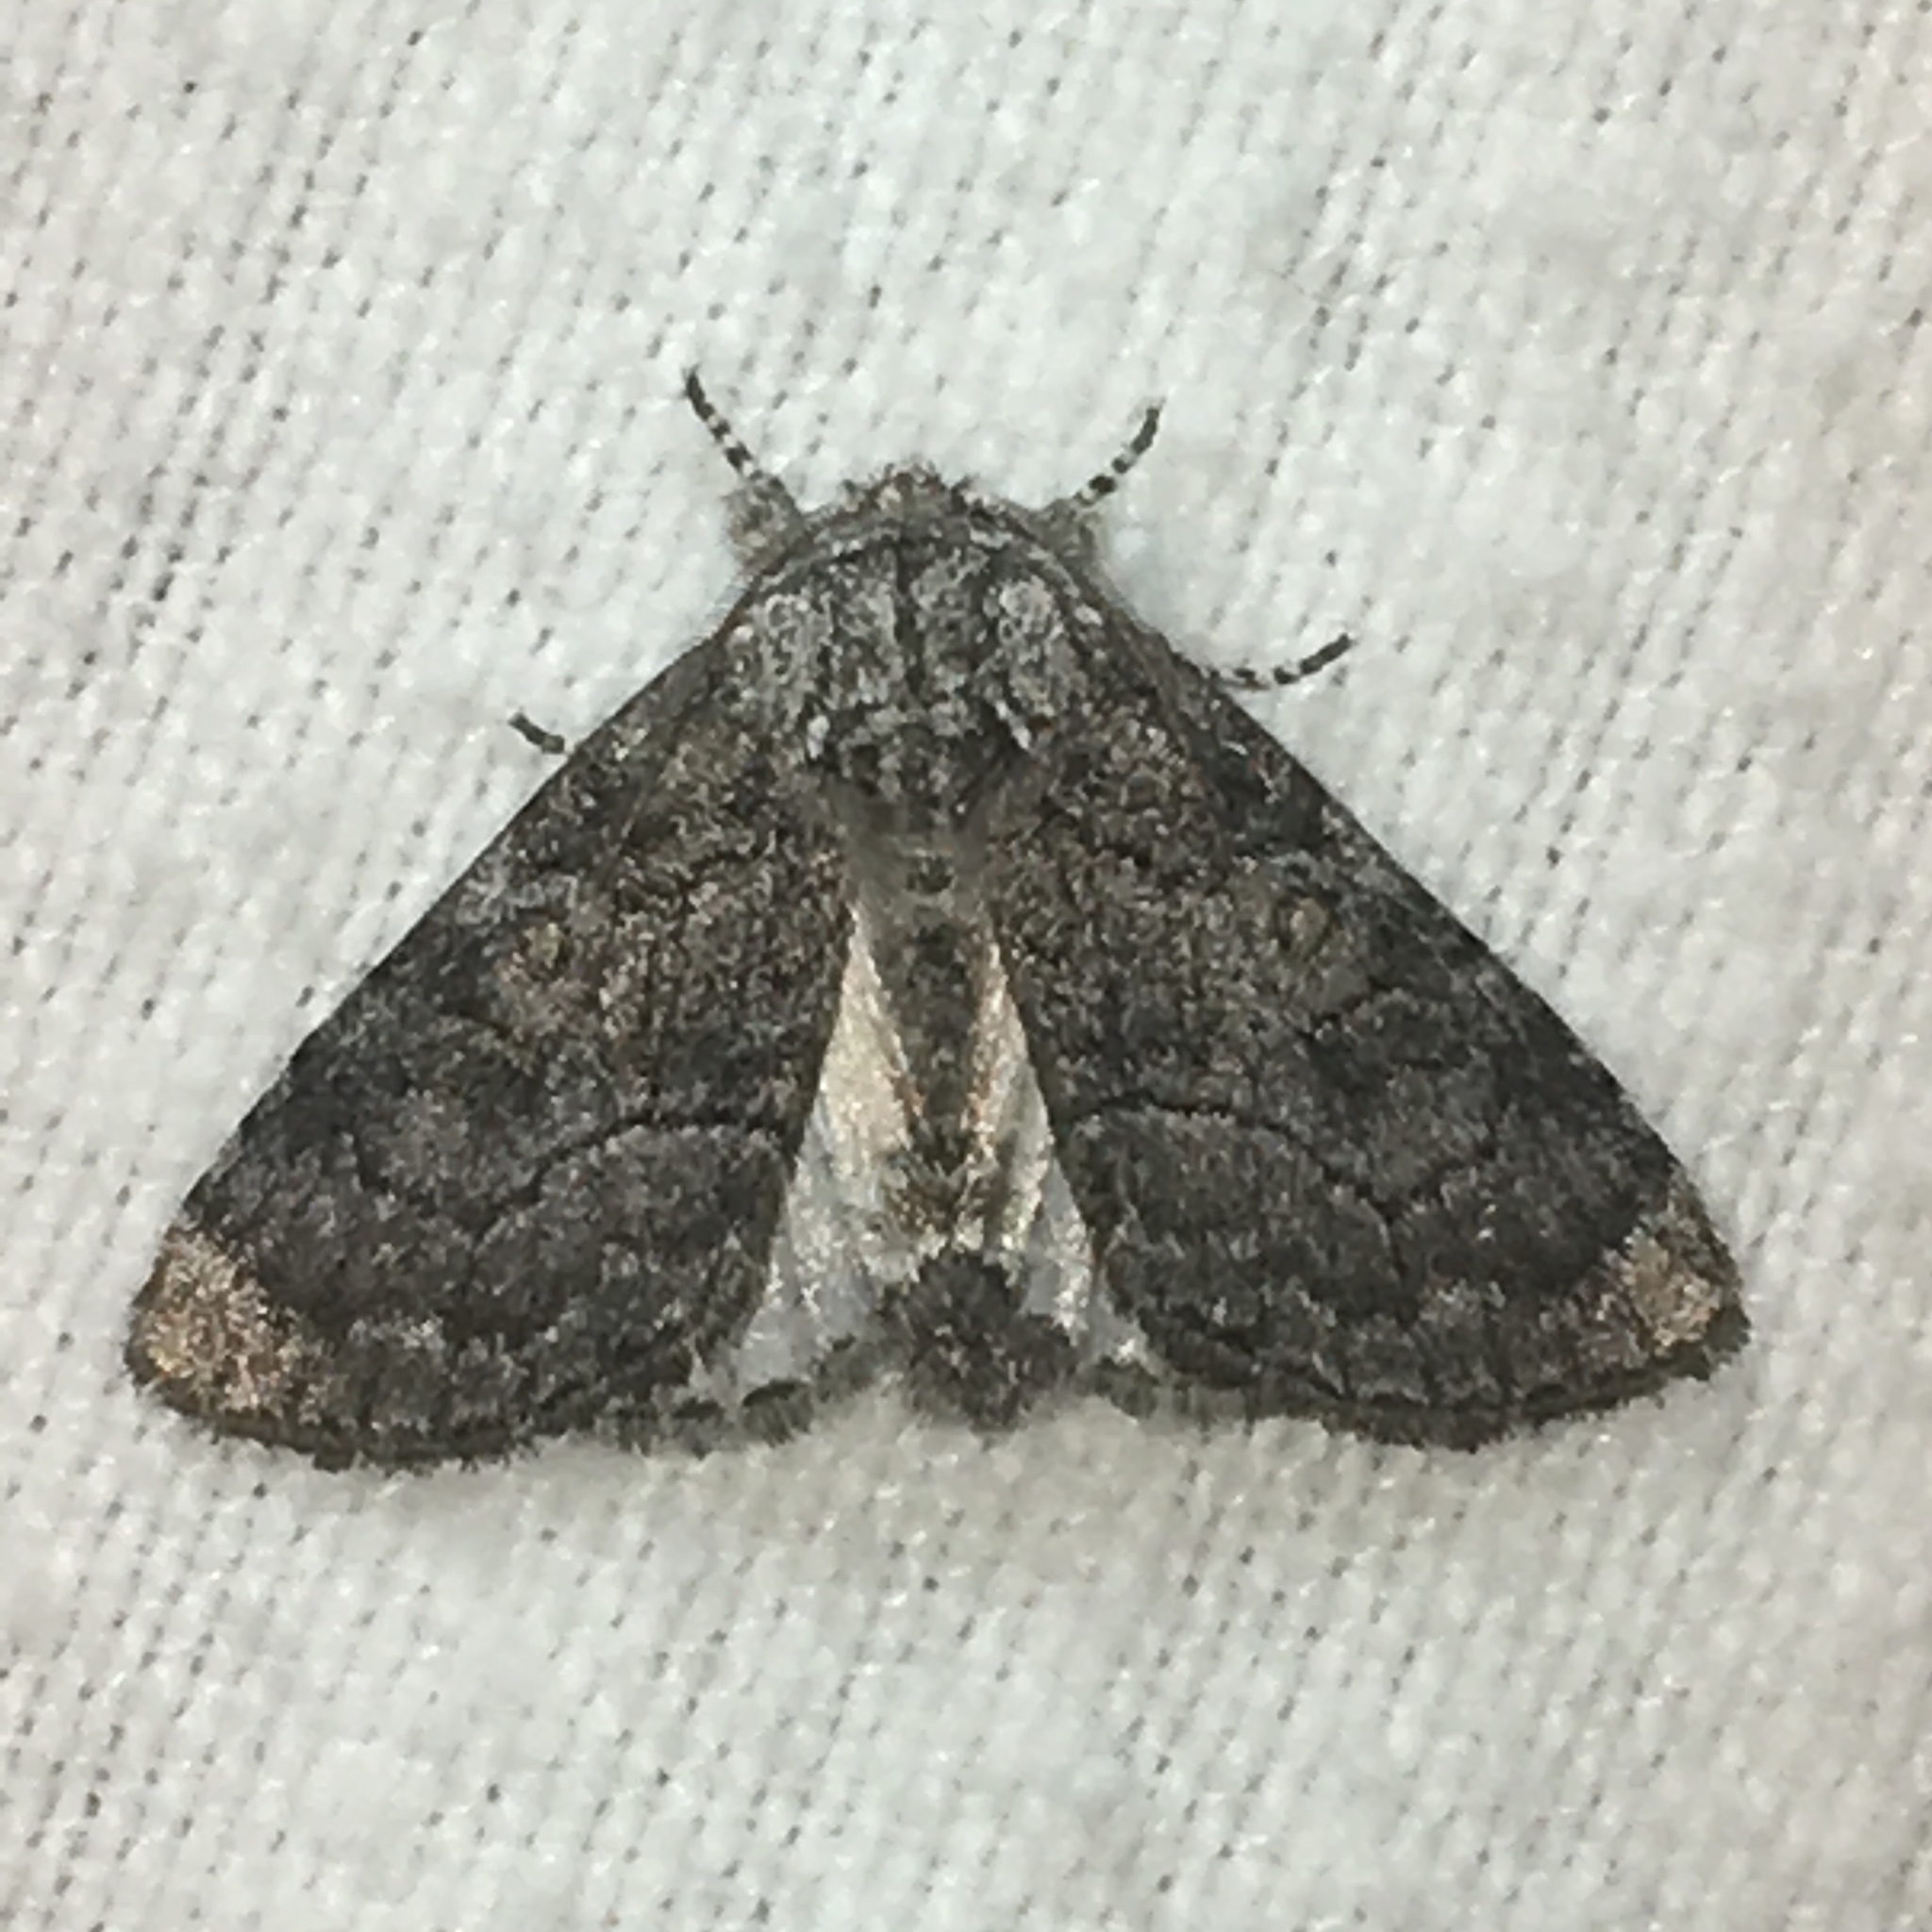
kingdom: Animalia
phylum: Arthropoda
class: Insecta
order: Lepidoptera
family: Noctuidae
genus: Raphia
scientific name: Raphia frater
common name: Brother
